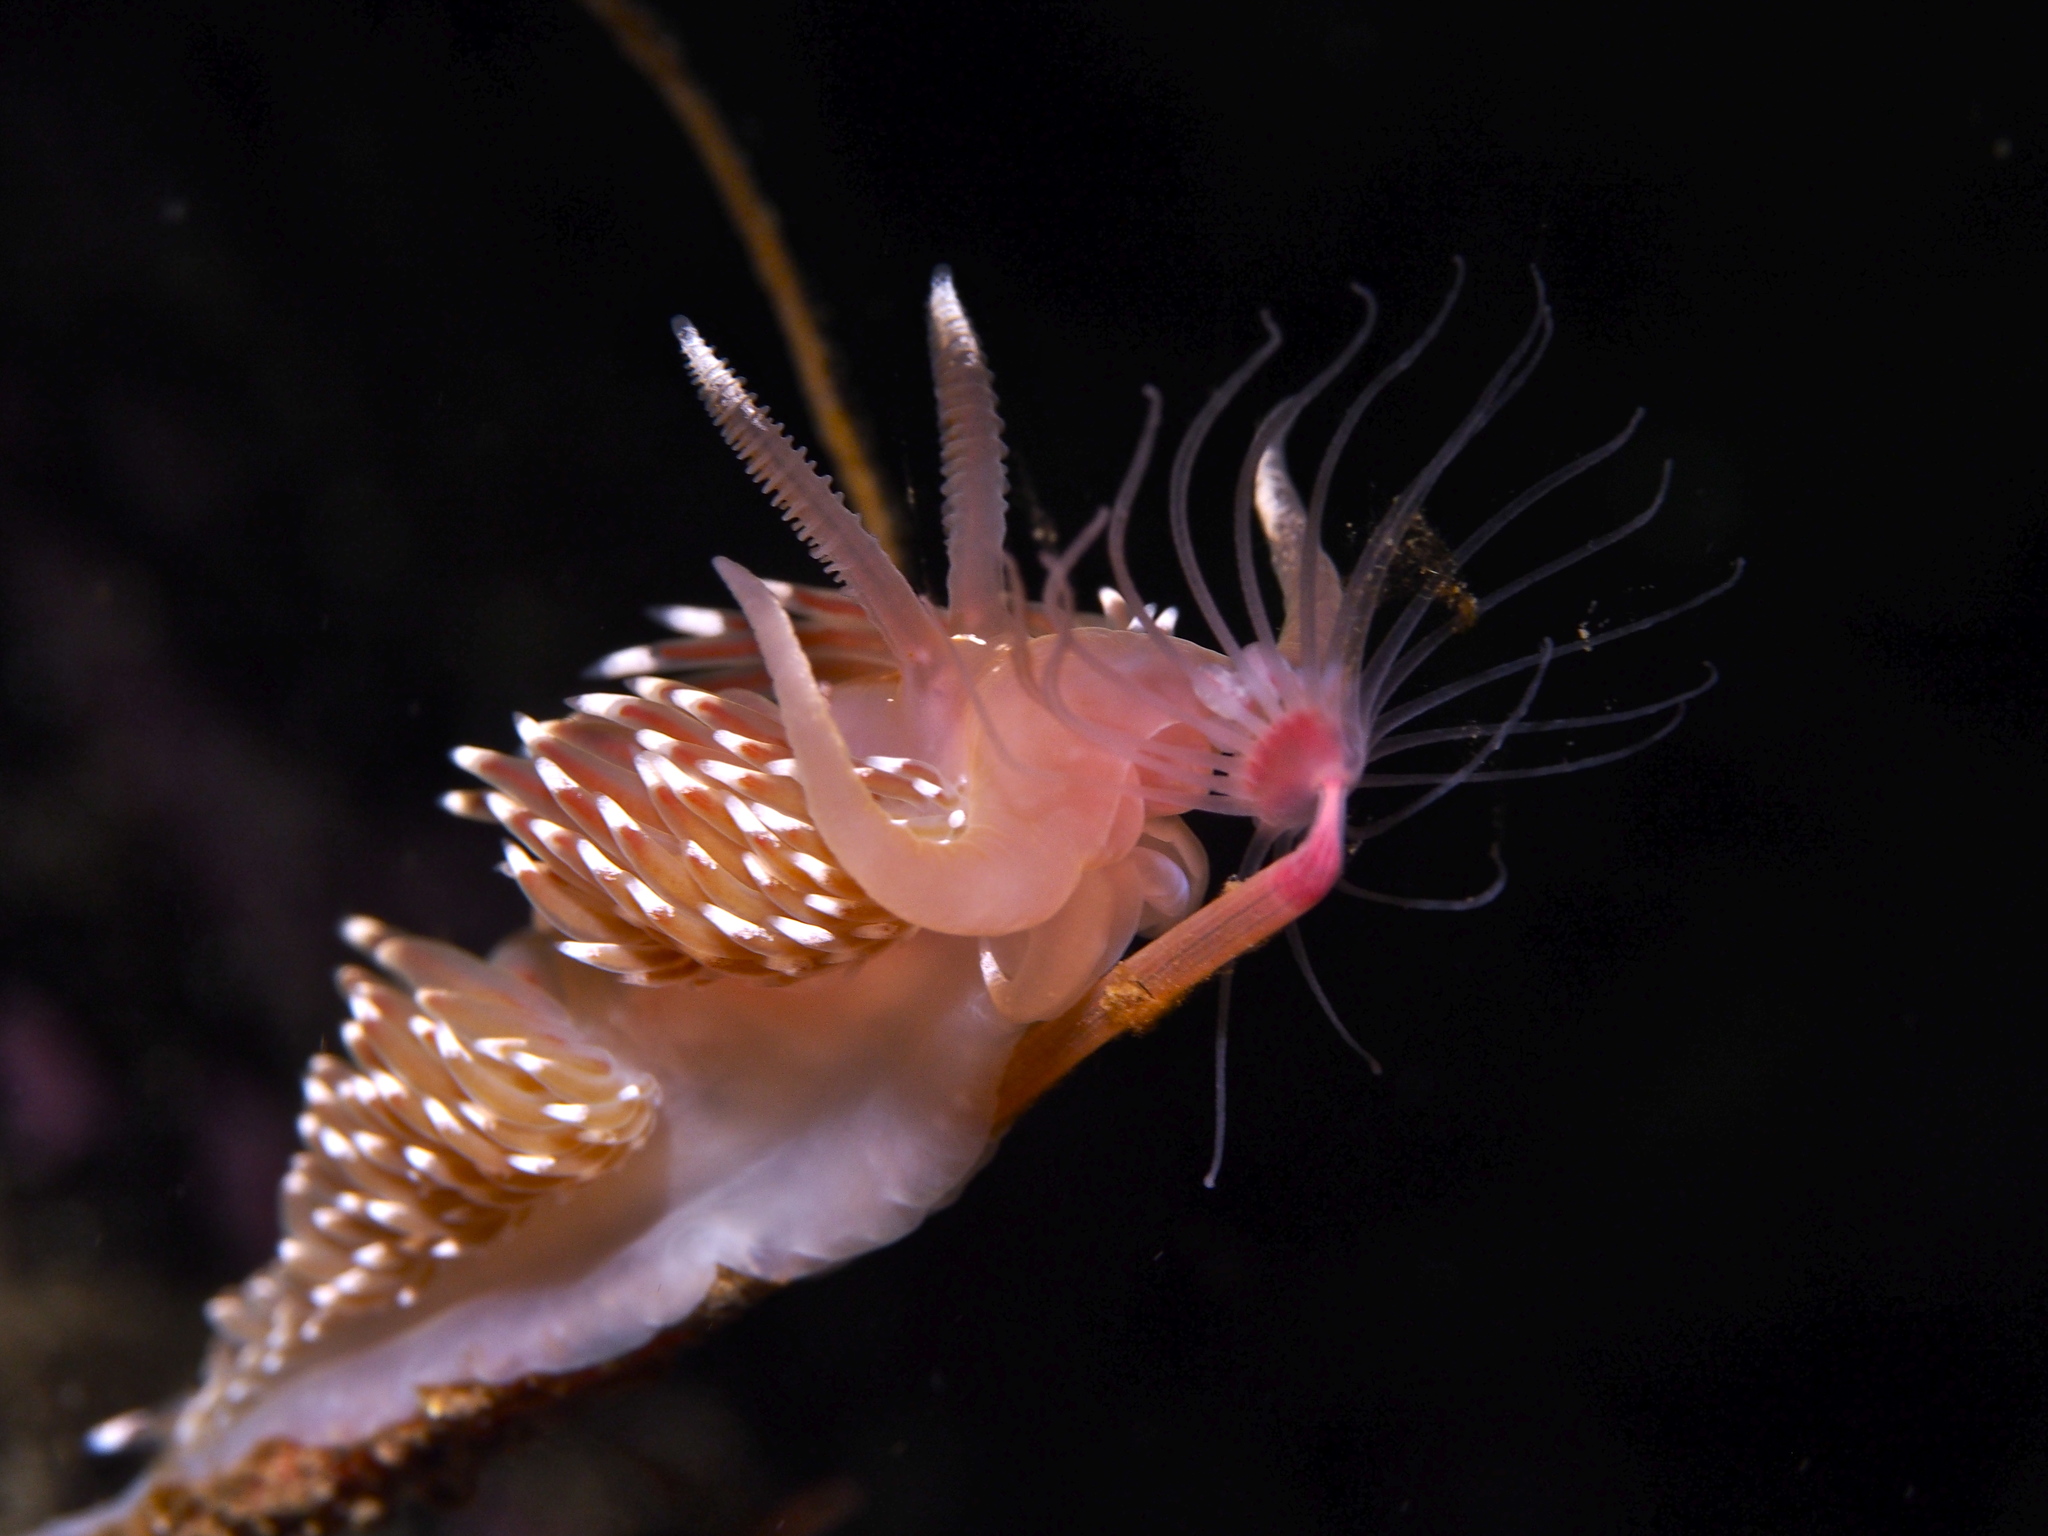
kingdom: Animalia
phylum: Mollusca
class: Gastropoda
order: Nudibranchia
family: Facelinidae
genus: Facelina
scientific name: Facelina bostoniensis
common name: Boston facelina
